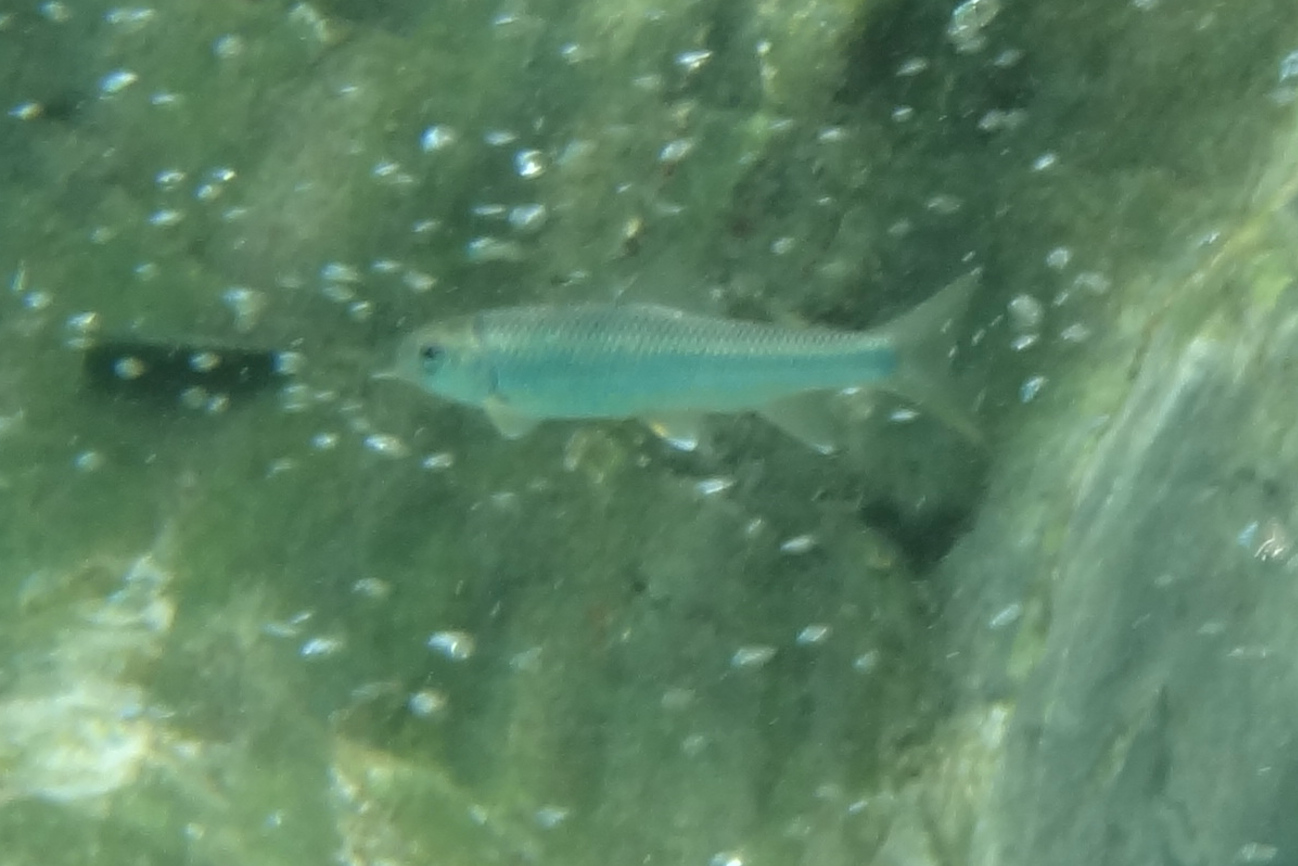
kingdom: Animalia
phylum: Chordata
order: Cypriniformes
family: Cyprinidae
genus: Onychostoma
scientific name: Onychostoma barbatulum
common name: Taiwan shoveljaw carp
